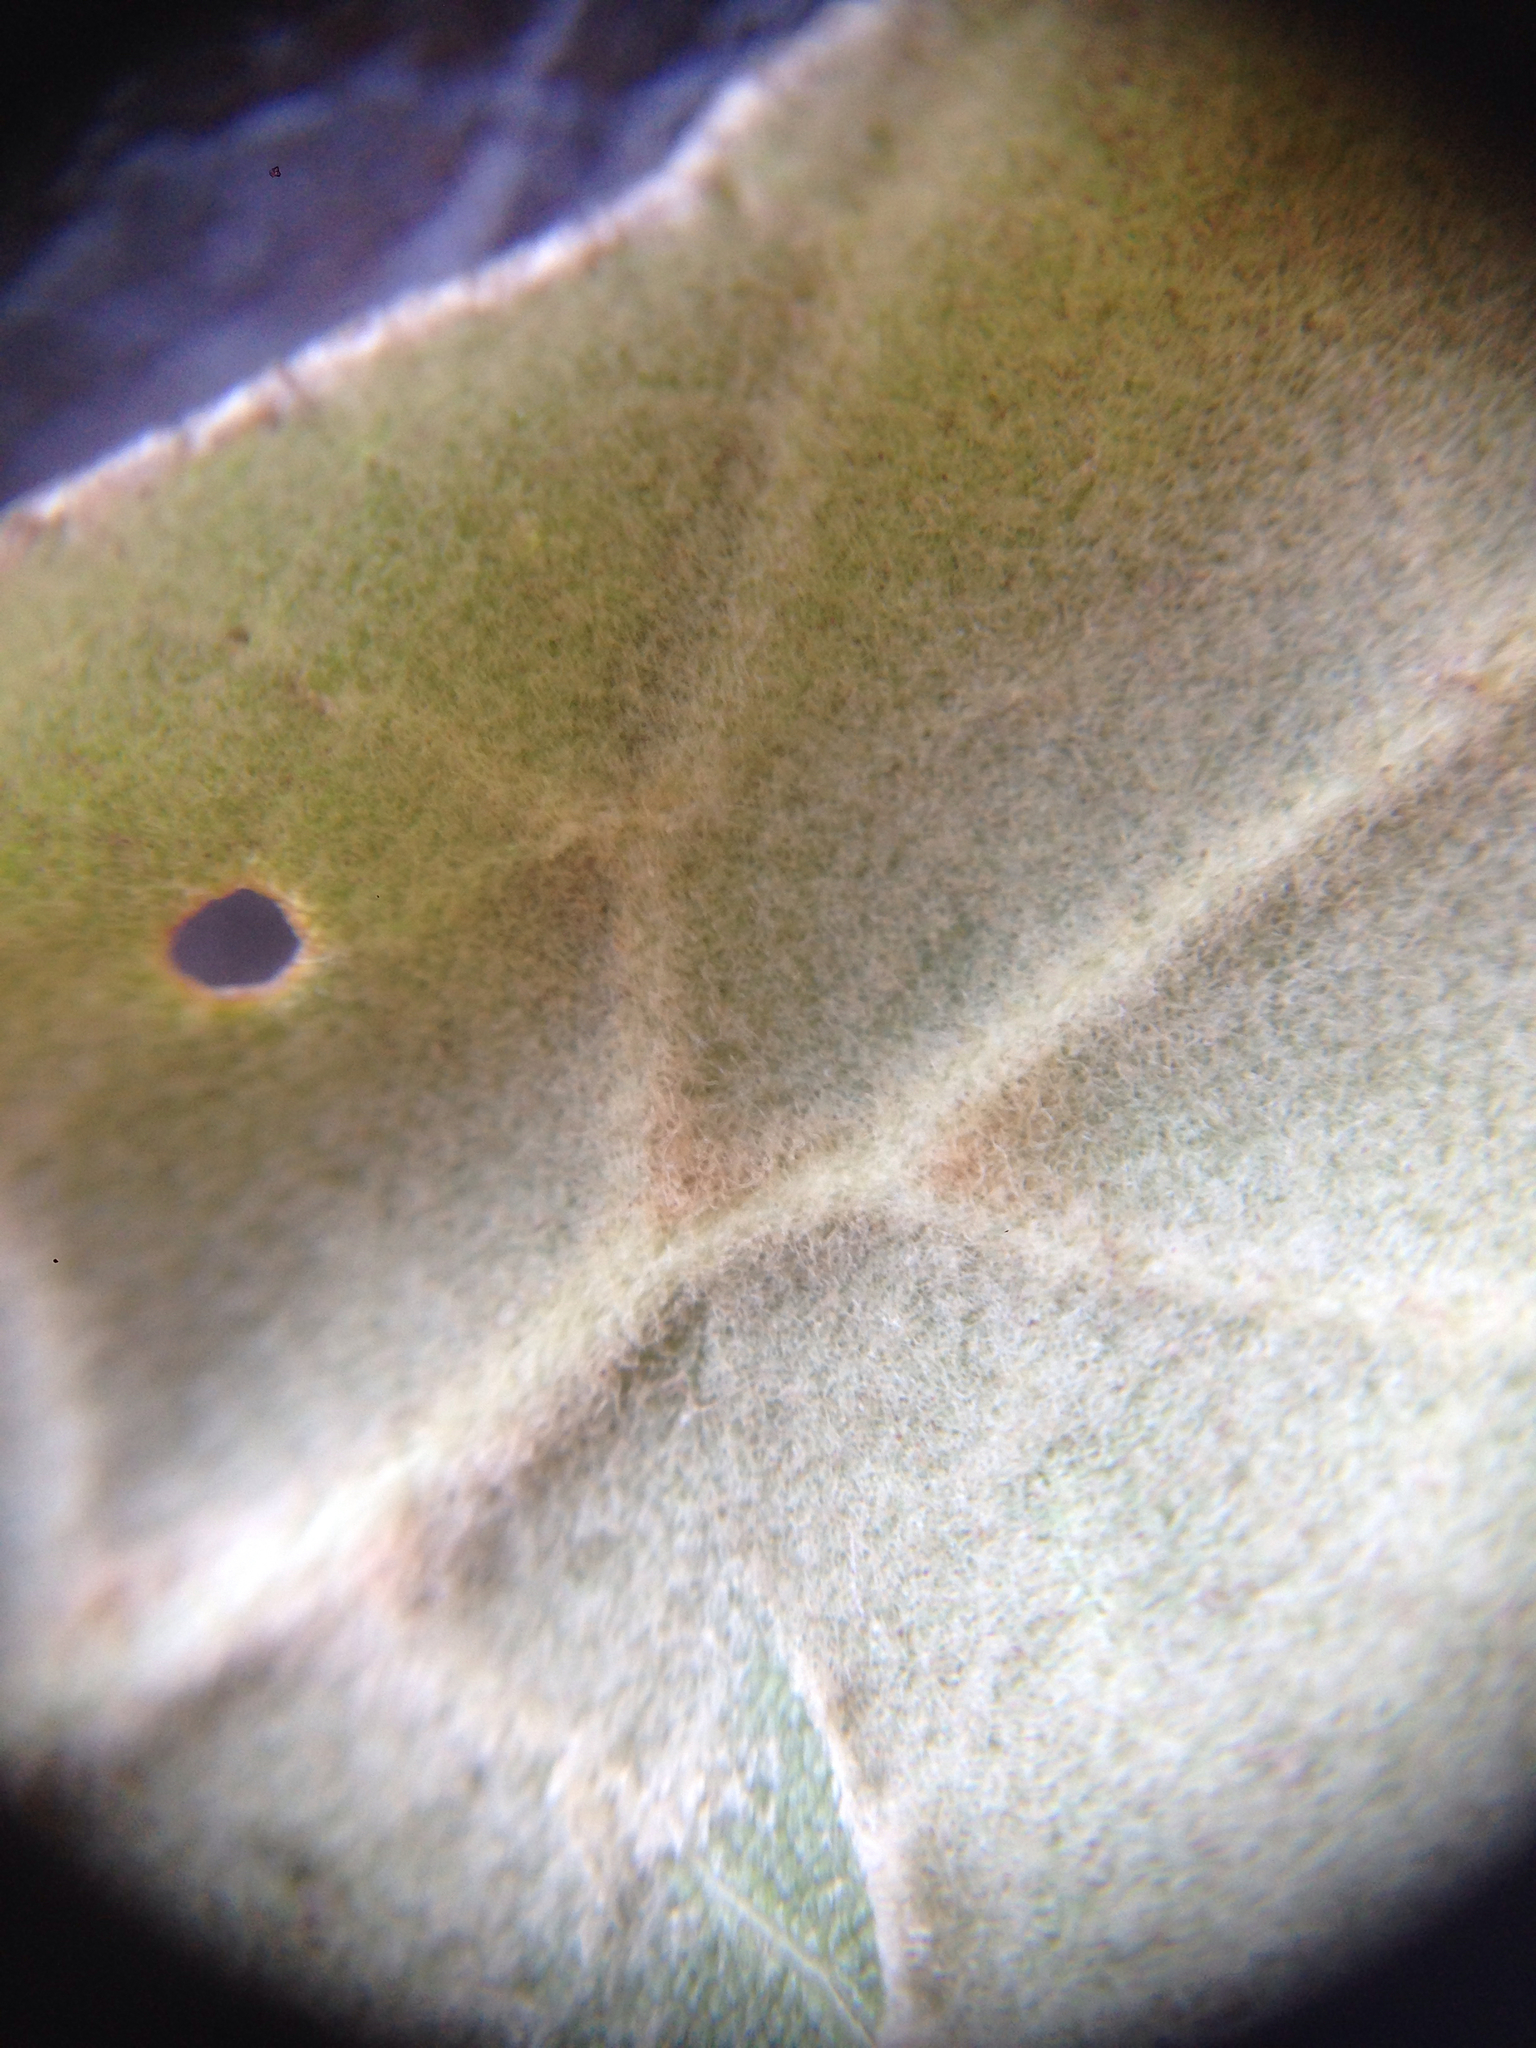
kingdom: Plantae
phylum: Tracheophyta
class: Magnoliopsida
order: Fagales
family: Fagaceae
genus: Quercus
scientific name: Quercus agrifolia
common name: California live oak
